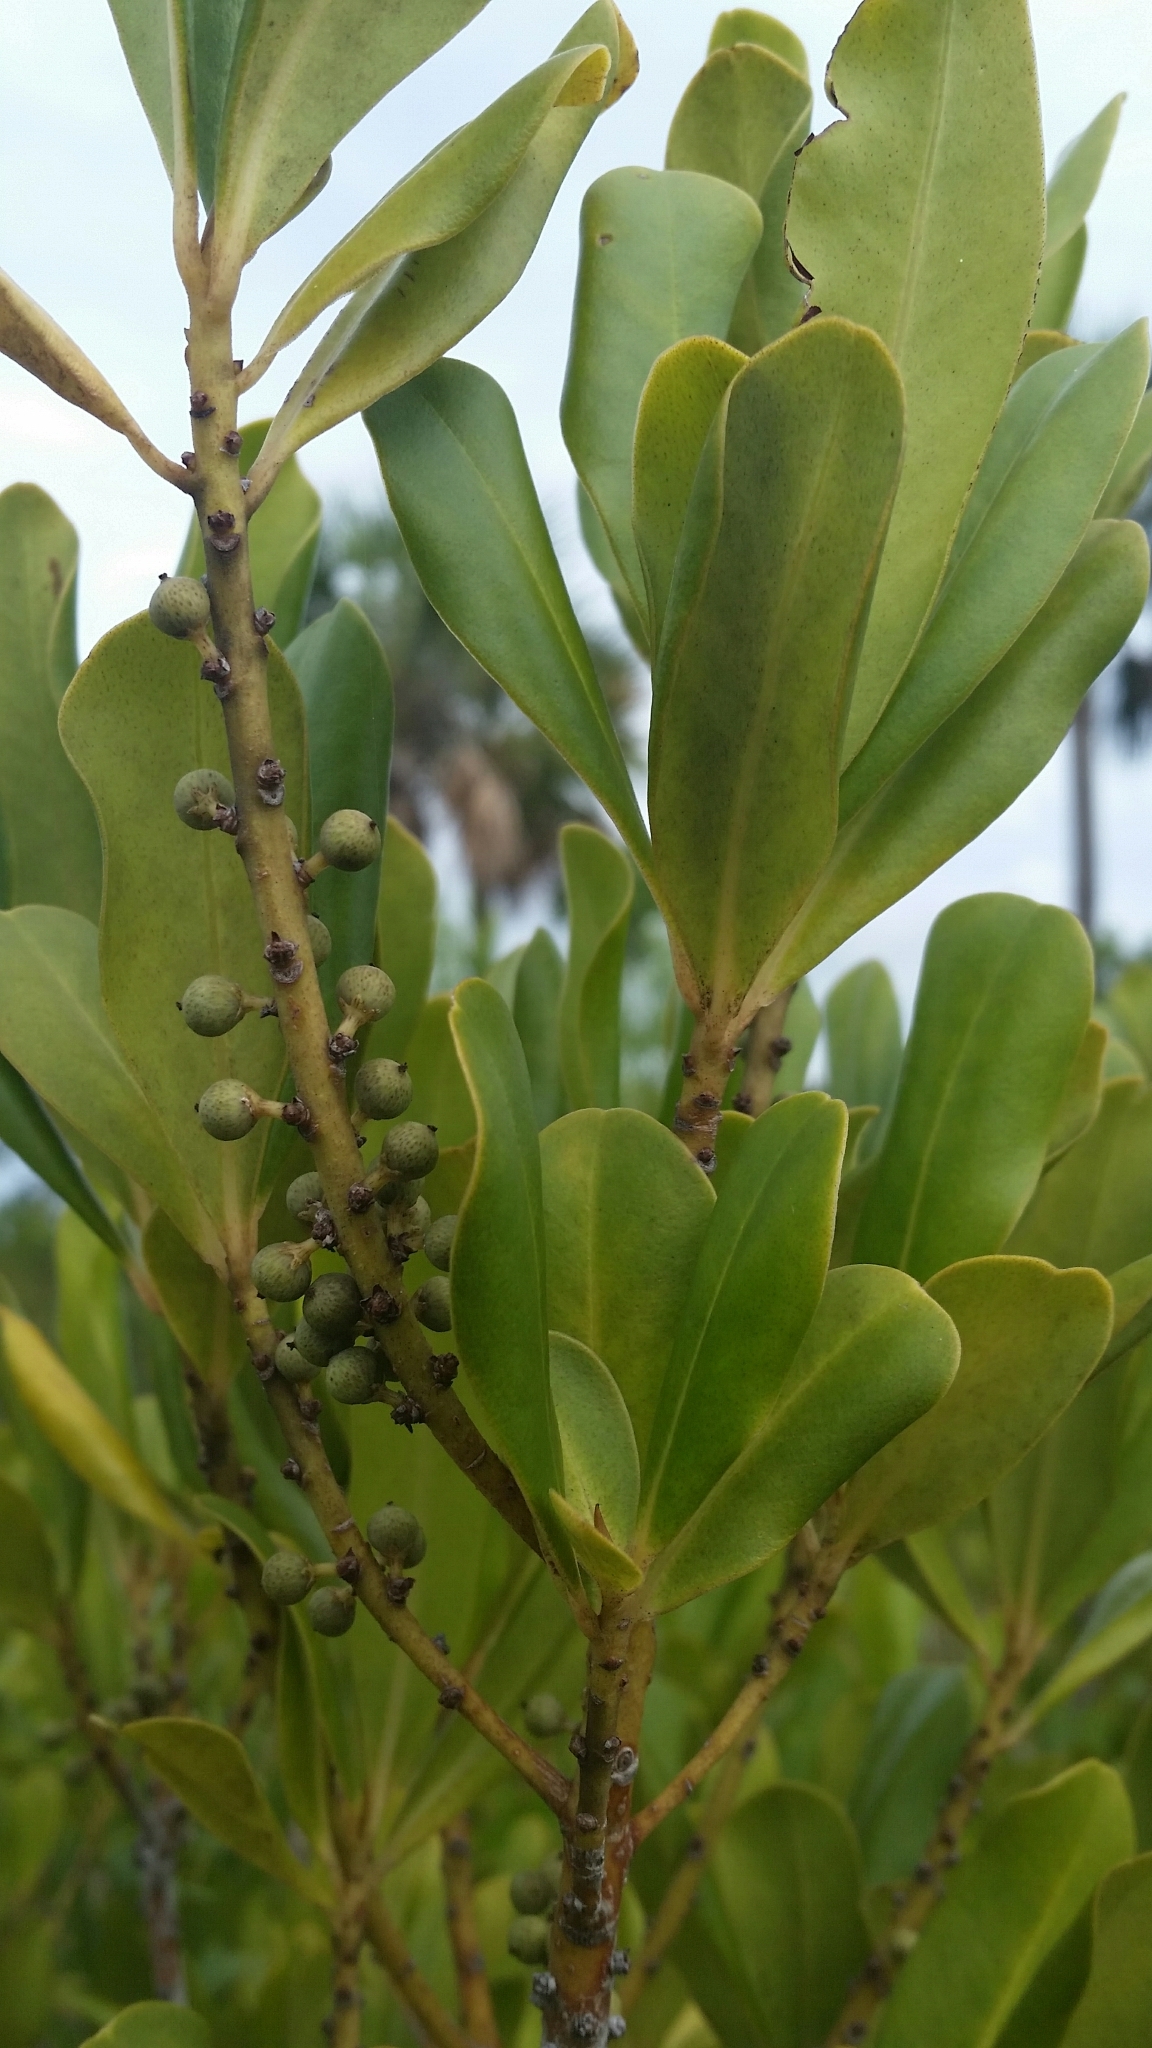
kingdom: Plantae
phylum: Tracheophyta
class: Magnoliopsida
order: Ericales
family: Primulaceae
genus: Myrsine
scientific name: Myrsine floridana
